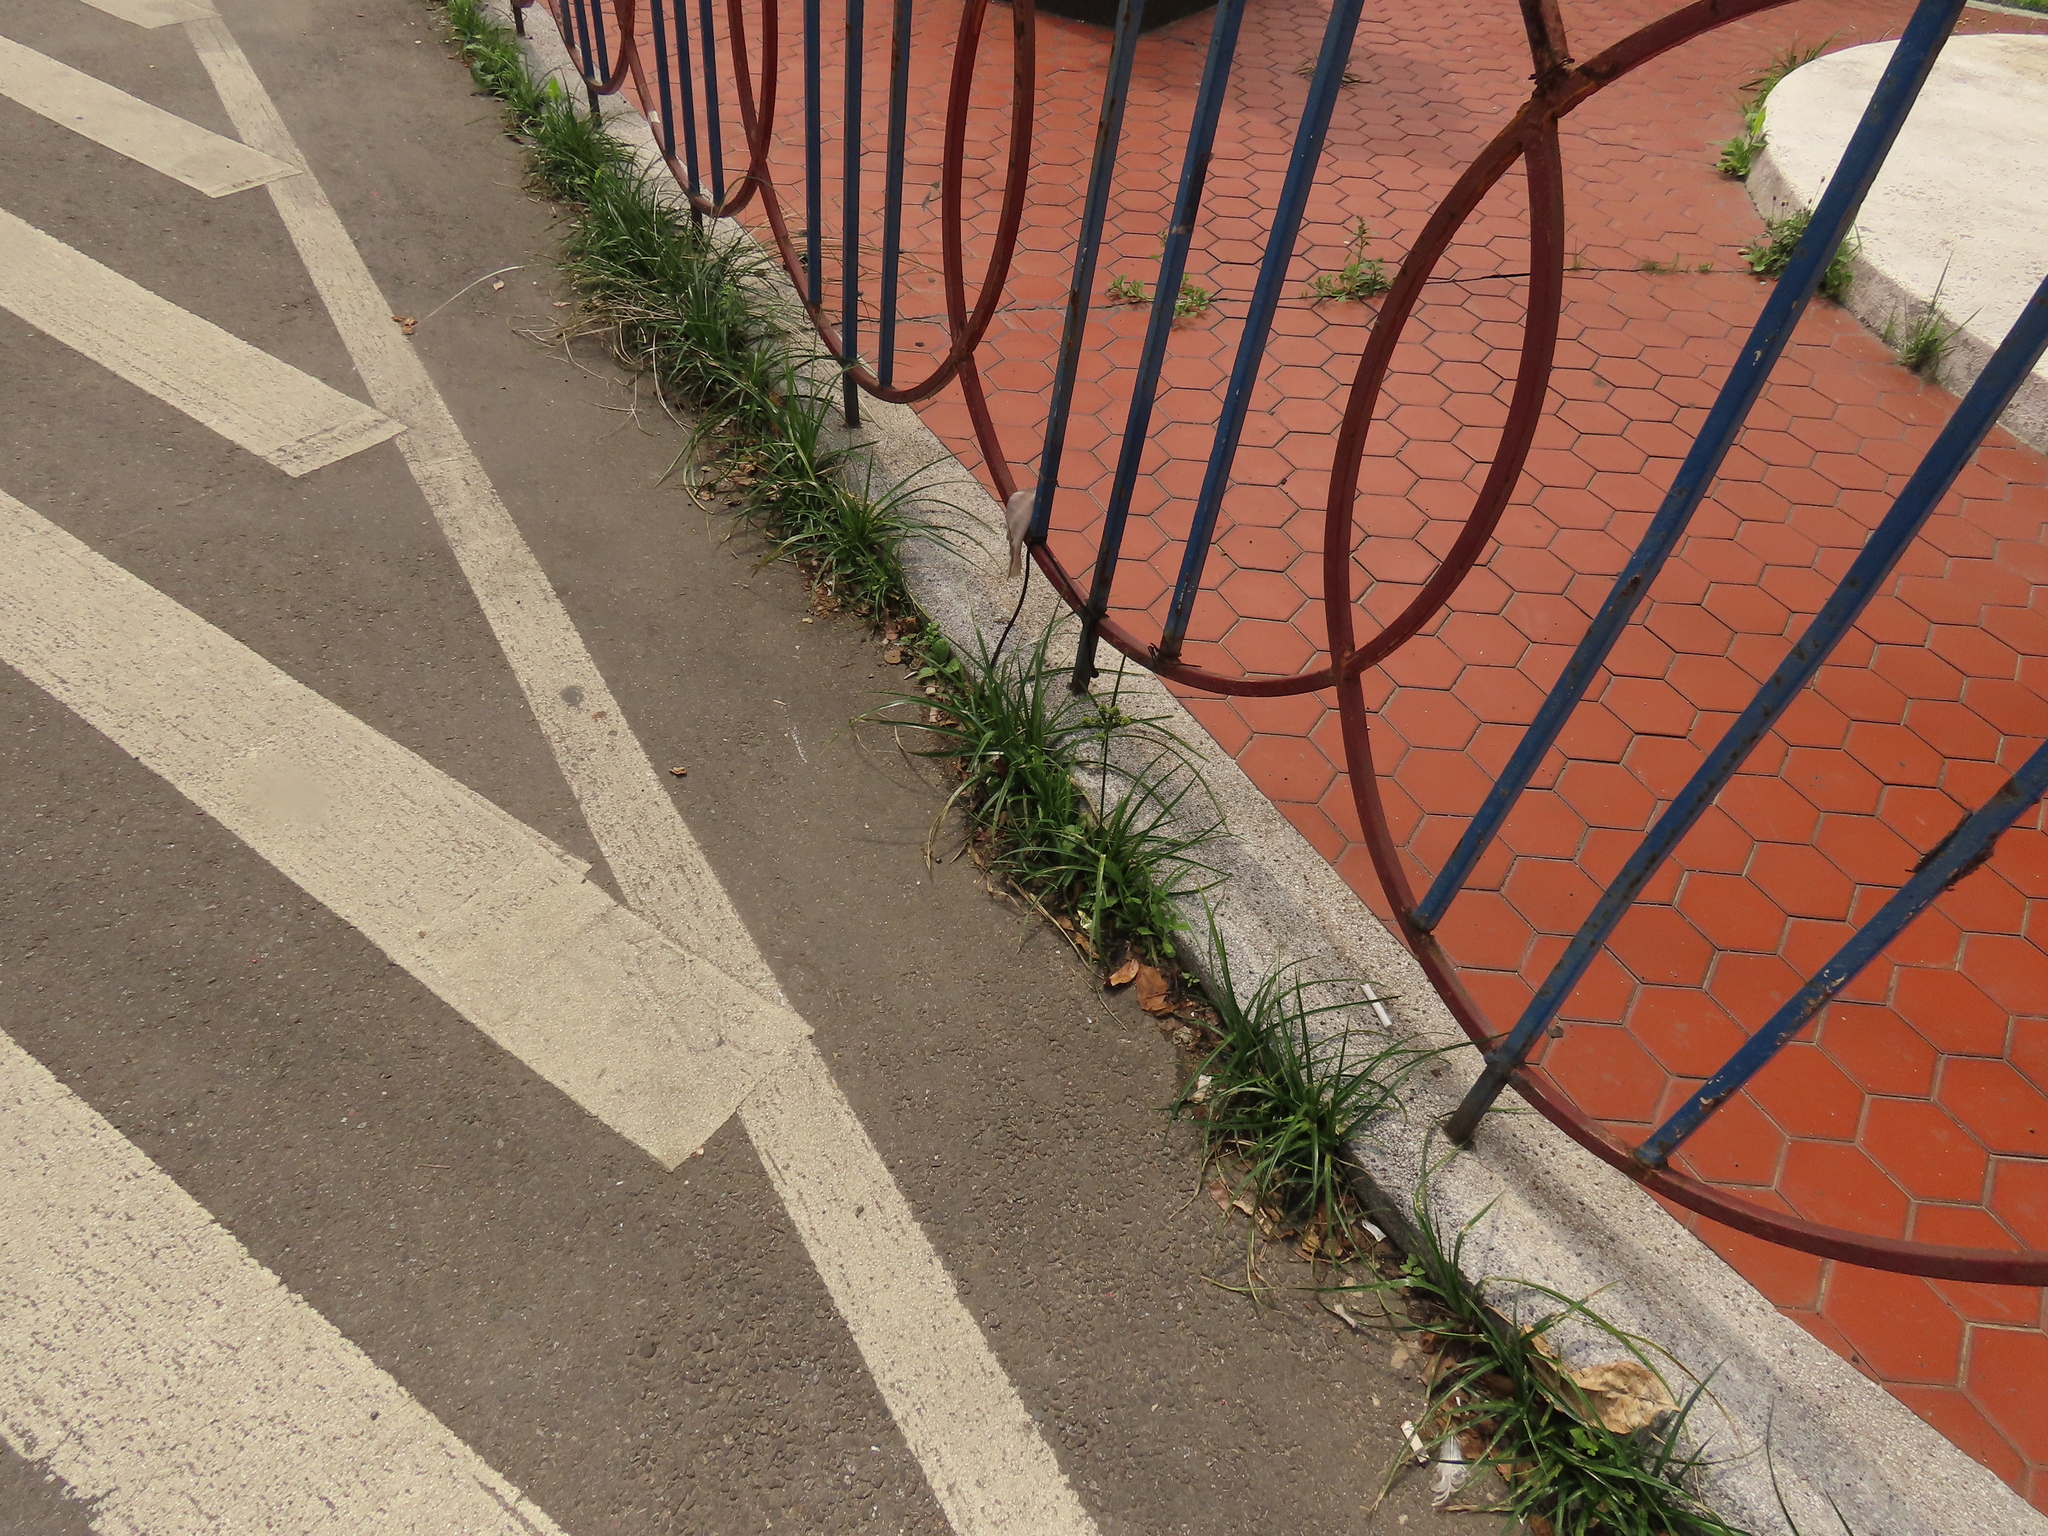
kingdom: Plantae
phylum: Tracheophyta
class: Liliopsida
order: Poales
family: Cyperaceae
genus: Cyperus
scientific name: Cyperus surinamensis
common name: Tropical flat sedge
